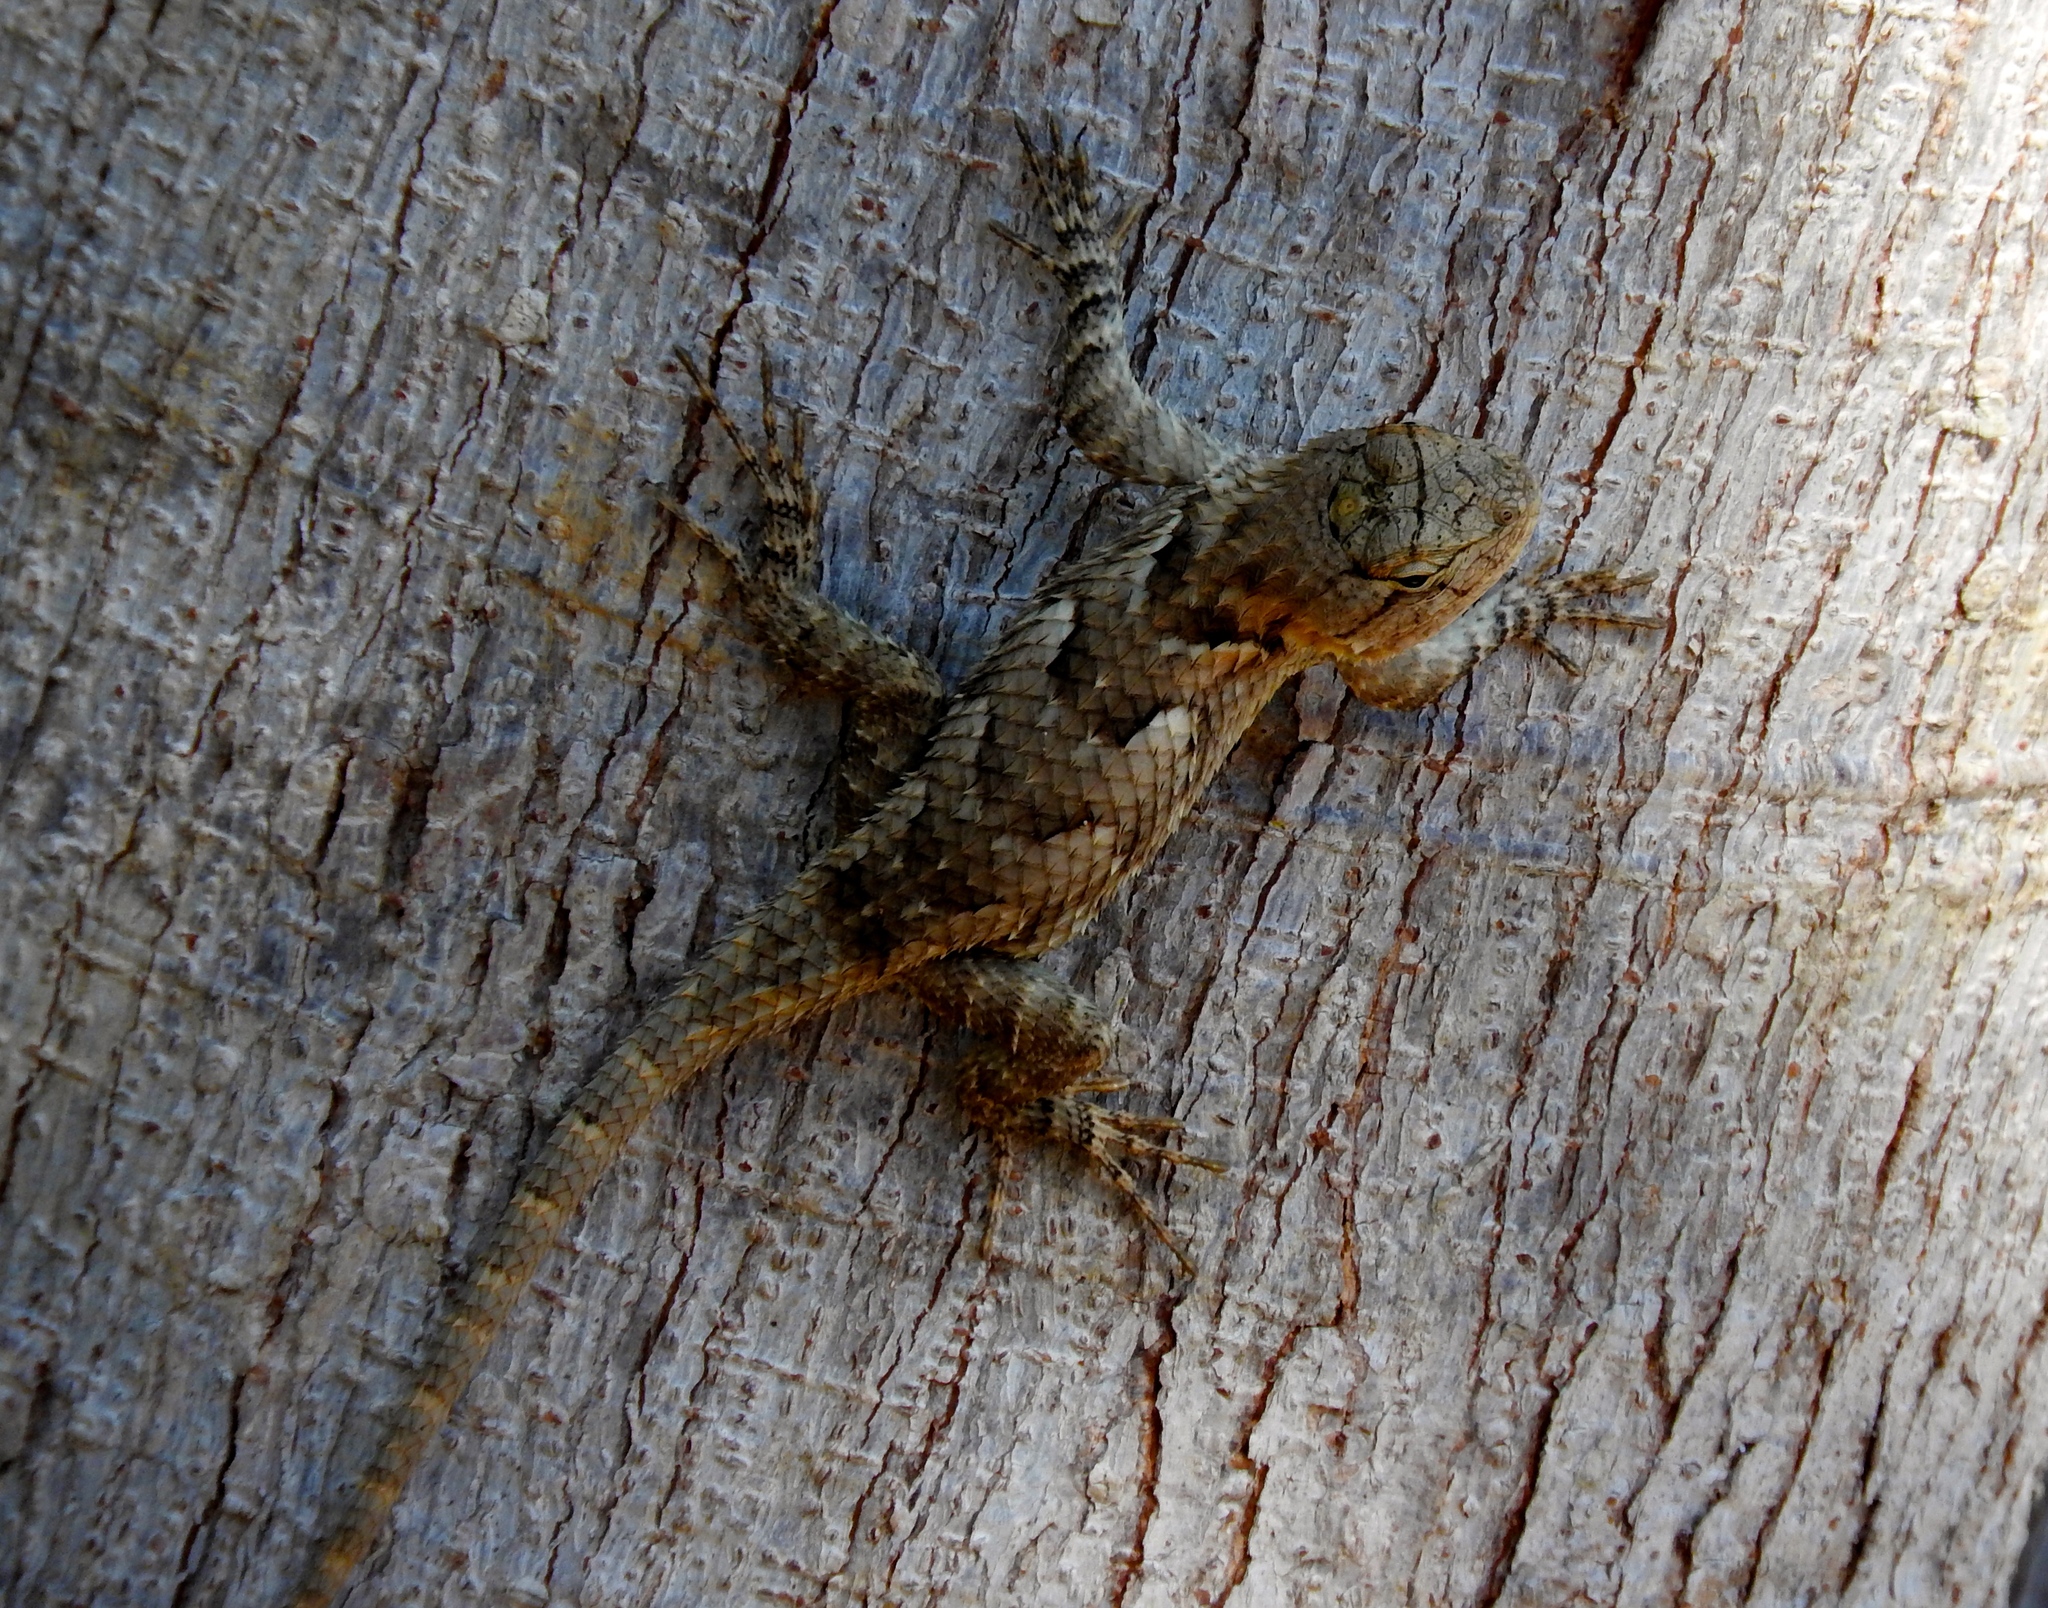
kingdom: Animalia
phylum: Chordata
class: Squamata
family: Phrynosomatidae
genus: Sceloporus
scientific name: Sceloporus clarkii
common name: Clark's spiny lizard
